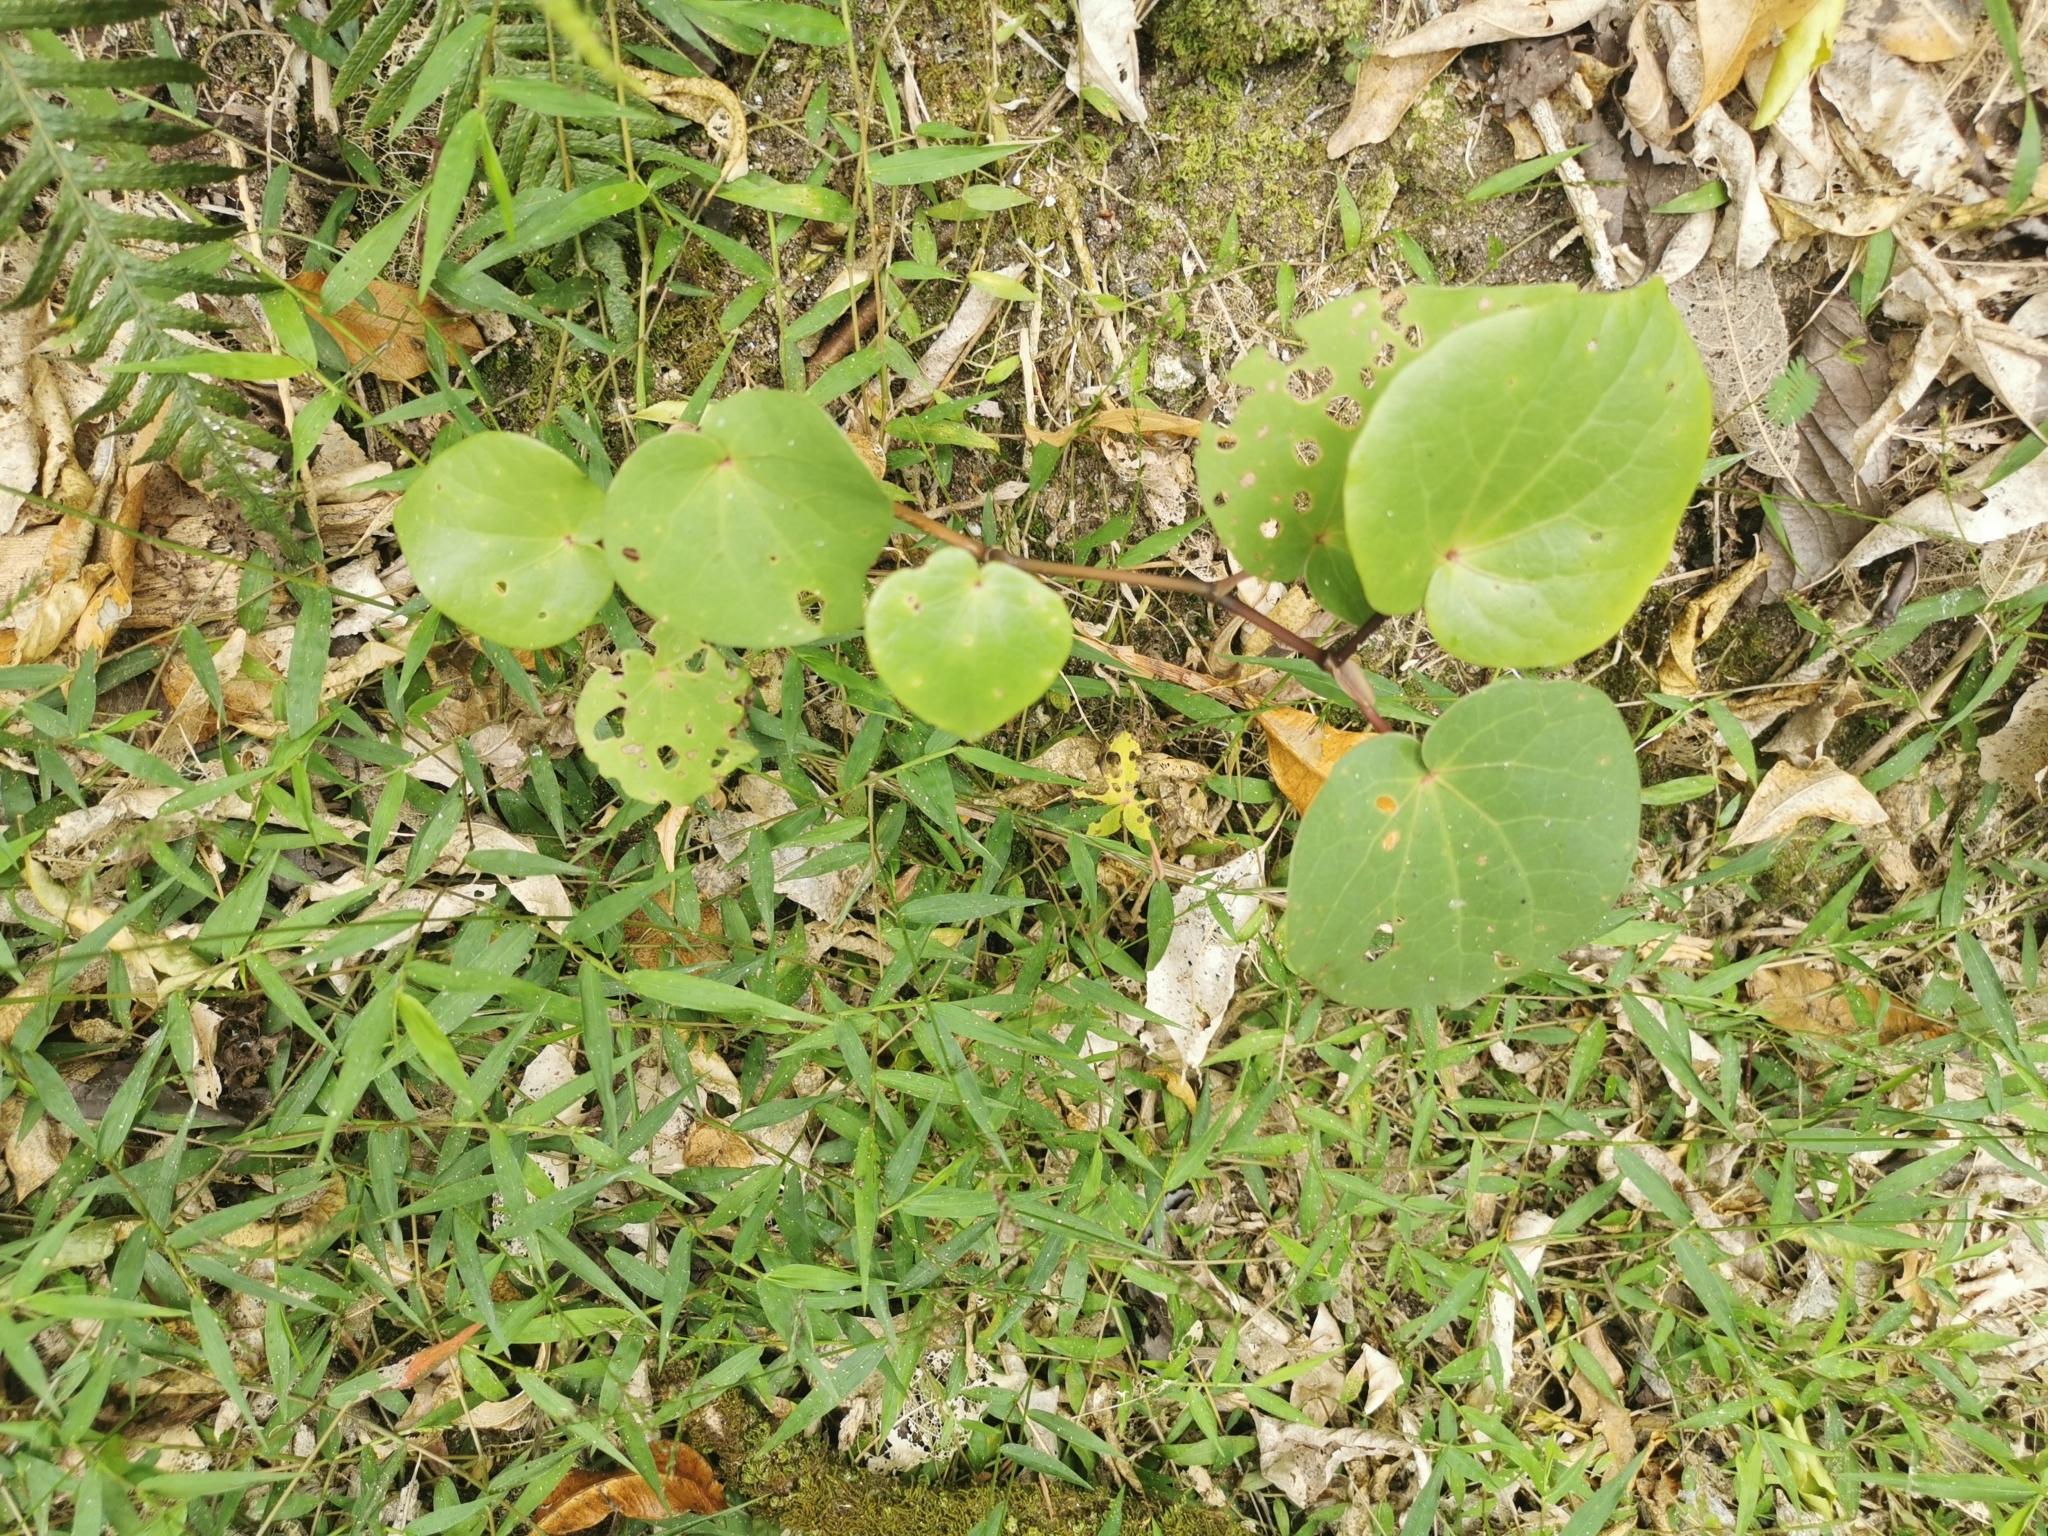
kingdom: Plantae
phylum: Tracheophyta
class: Magnoliopsida
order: Piperales
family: Piperaceae
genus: Macropiper
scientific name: Macropiper excelsum
